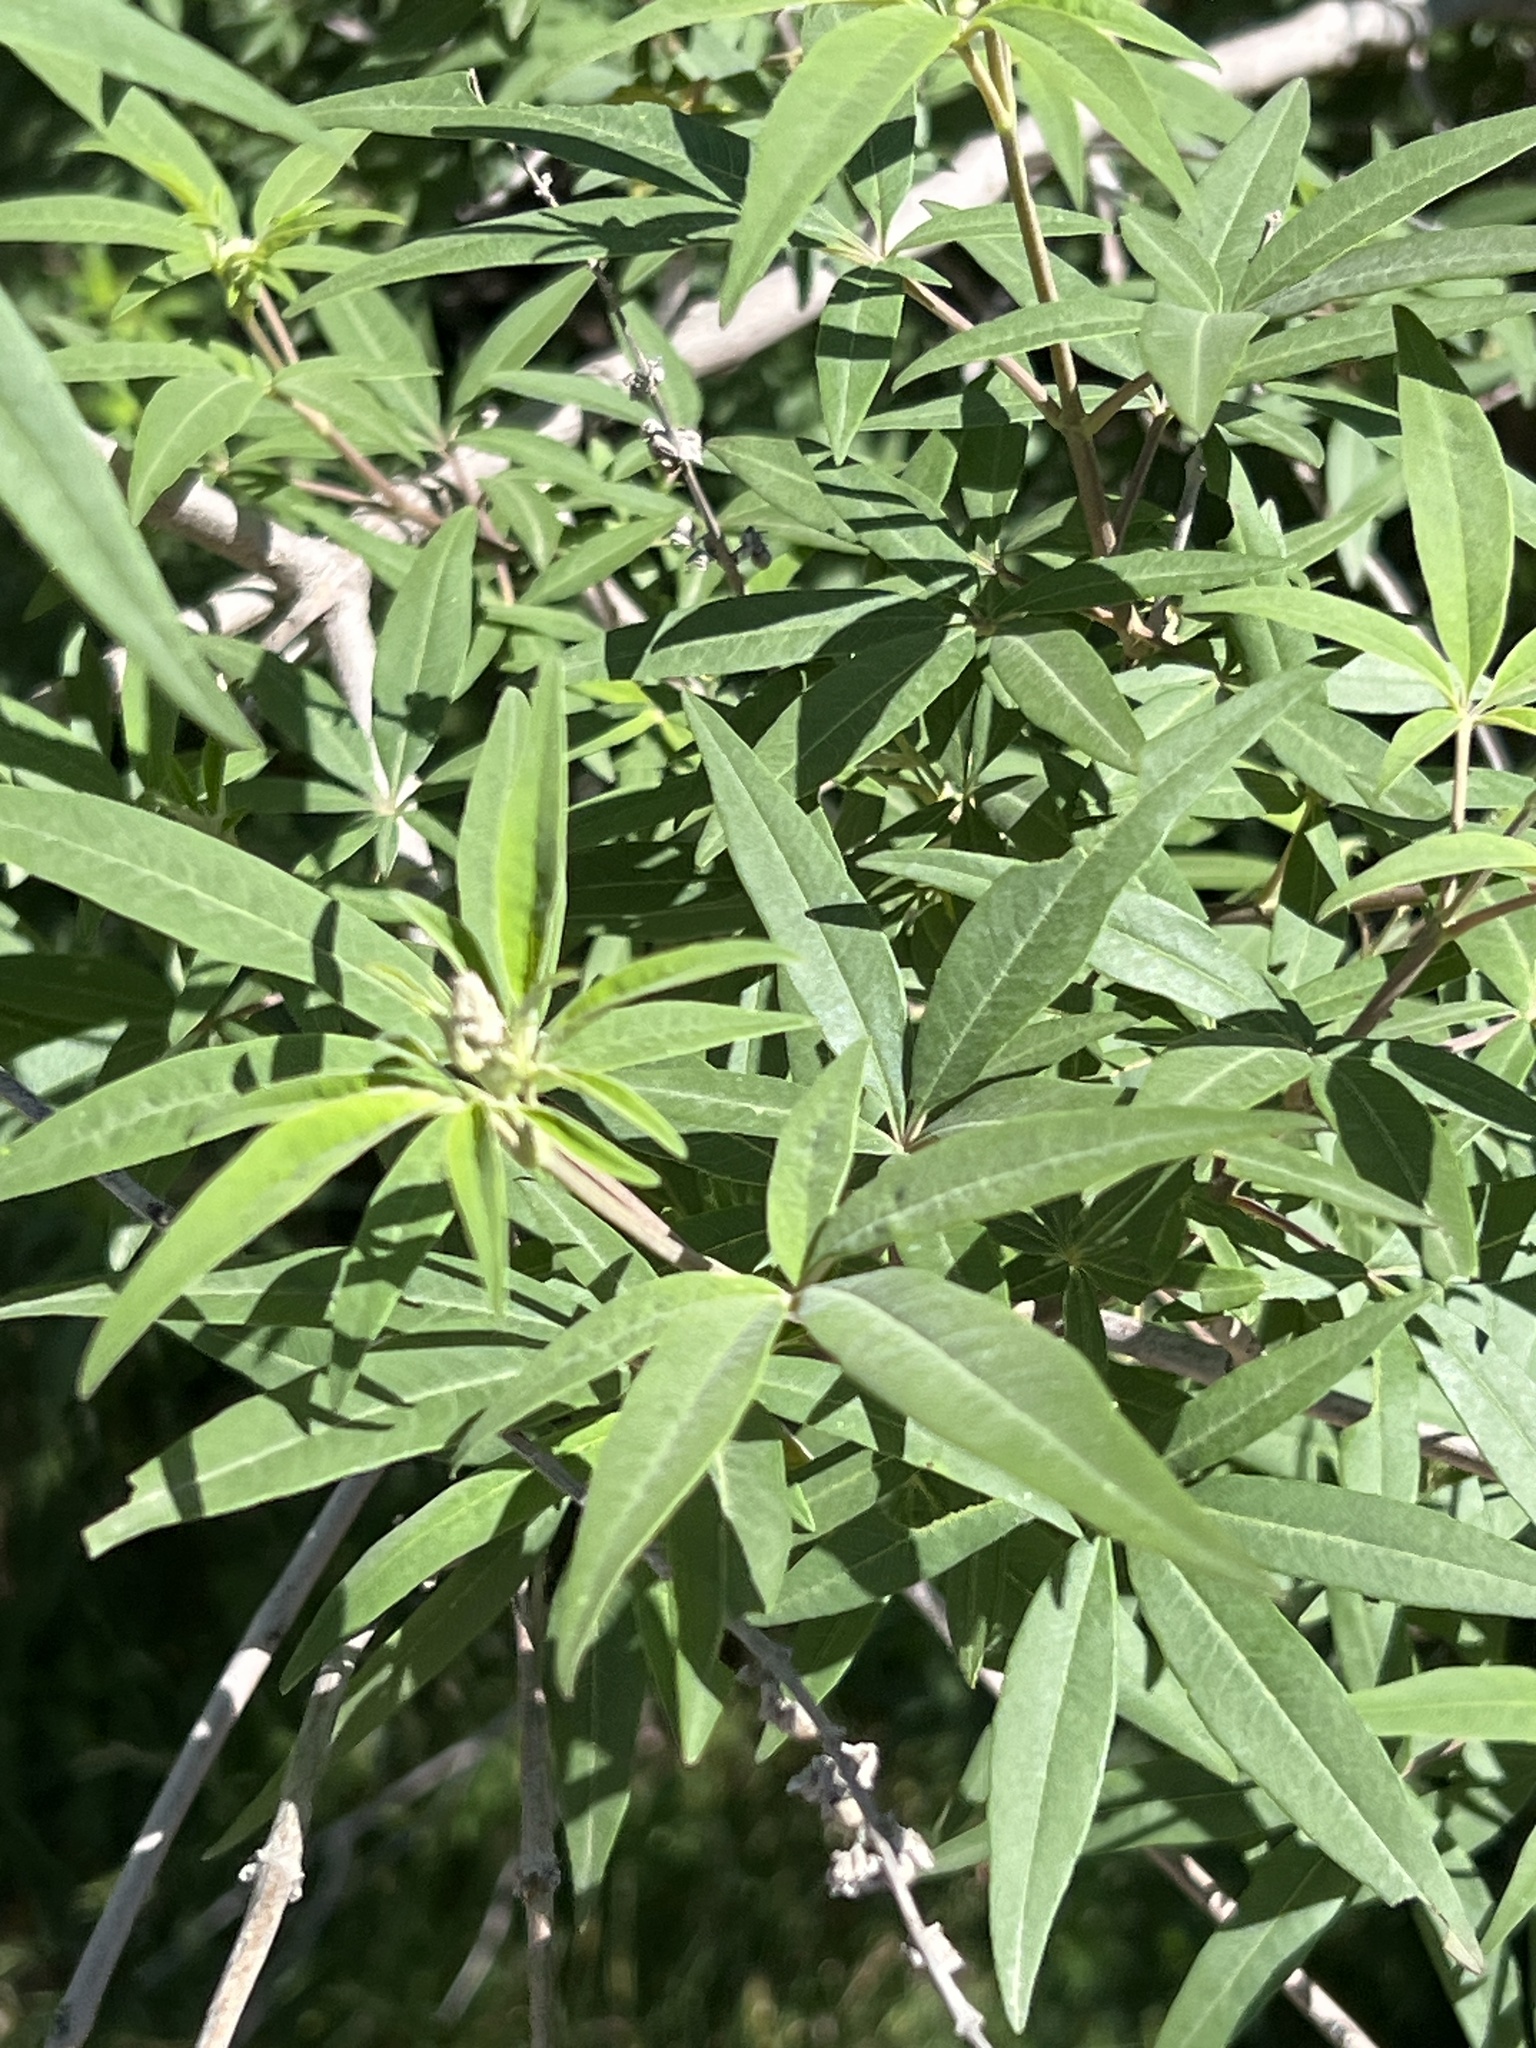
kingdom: Plantae
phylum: Tracheophyta
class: Magnoliopsida
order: Lamiales
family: Lamiaceae
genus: Vitex
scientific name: Vitex agnus-castus
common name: Chasteberry
